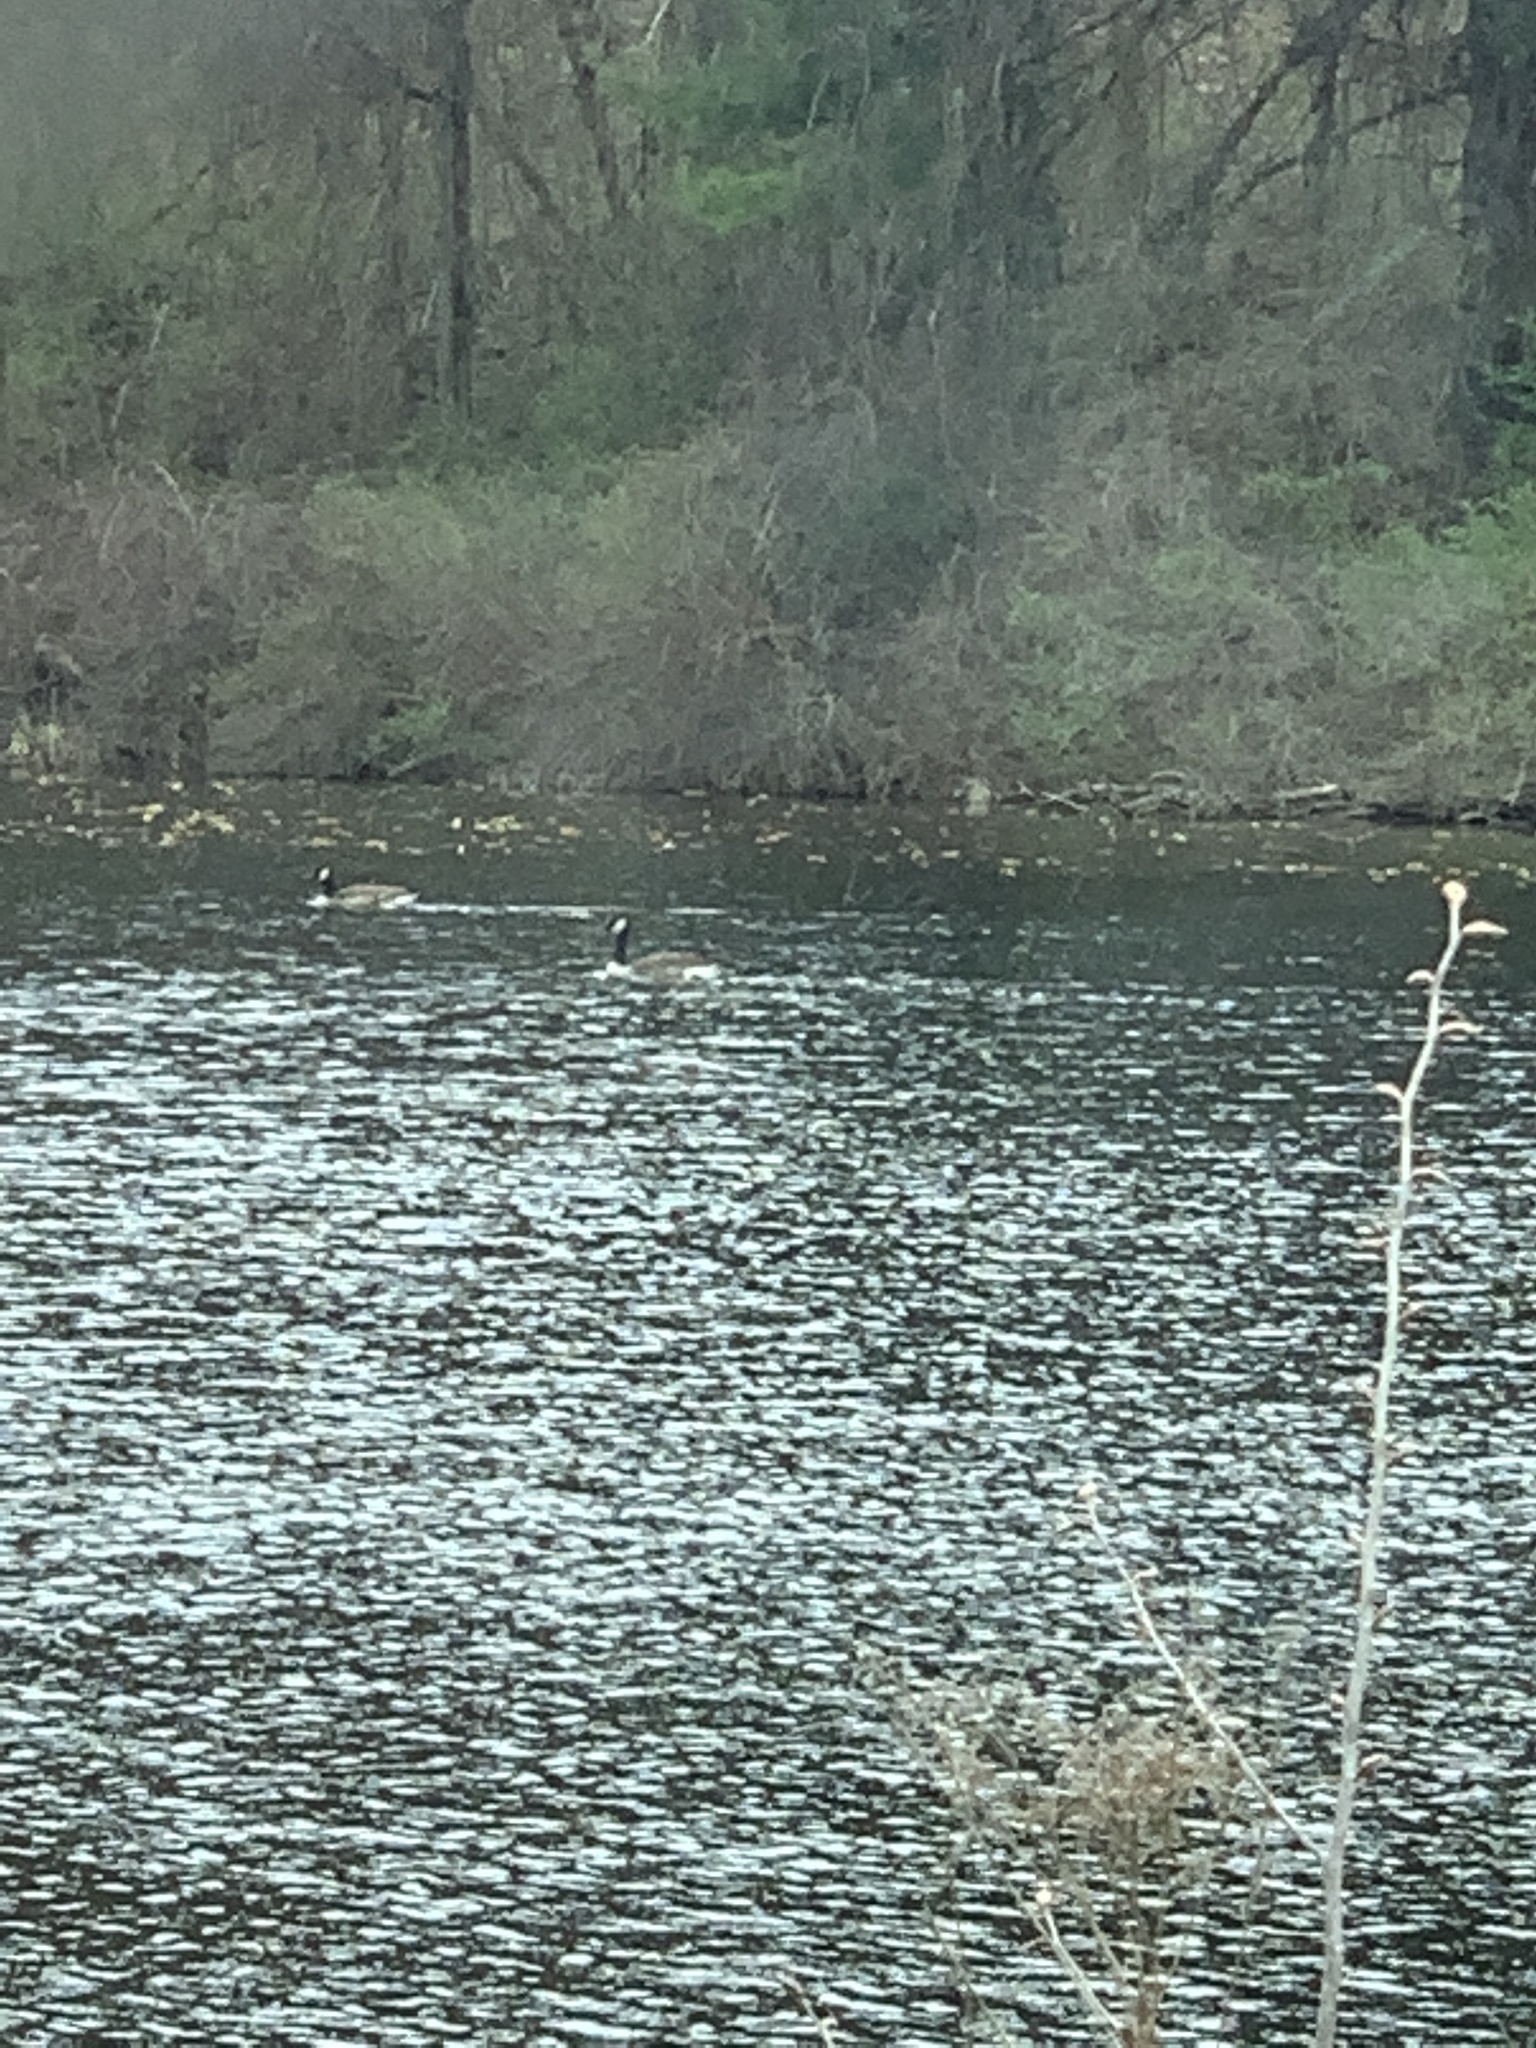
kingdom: Animalia
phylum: Chordata
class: Aves
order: Anseriformes
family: Anatidae
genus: Branta
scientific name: Branta canadensis
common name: Canada goose
